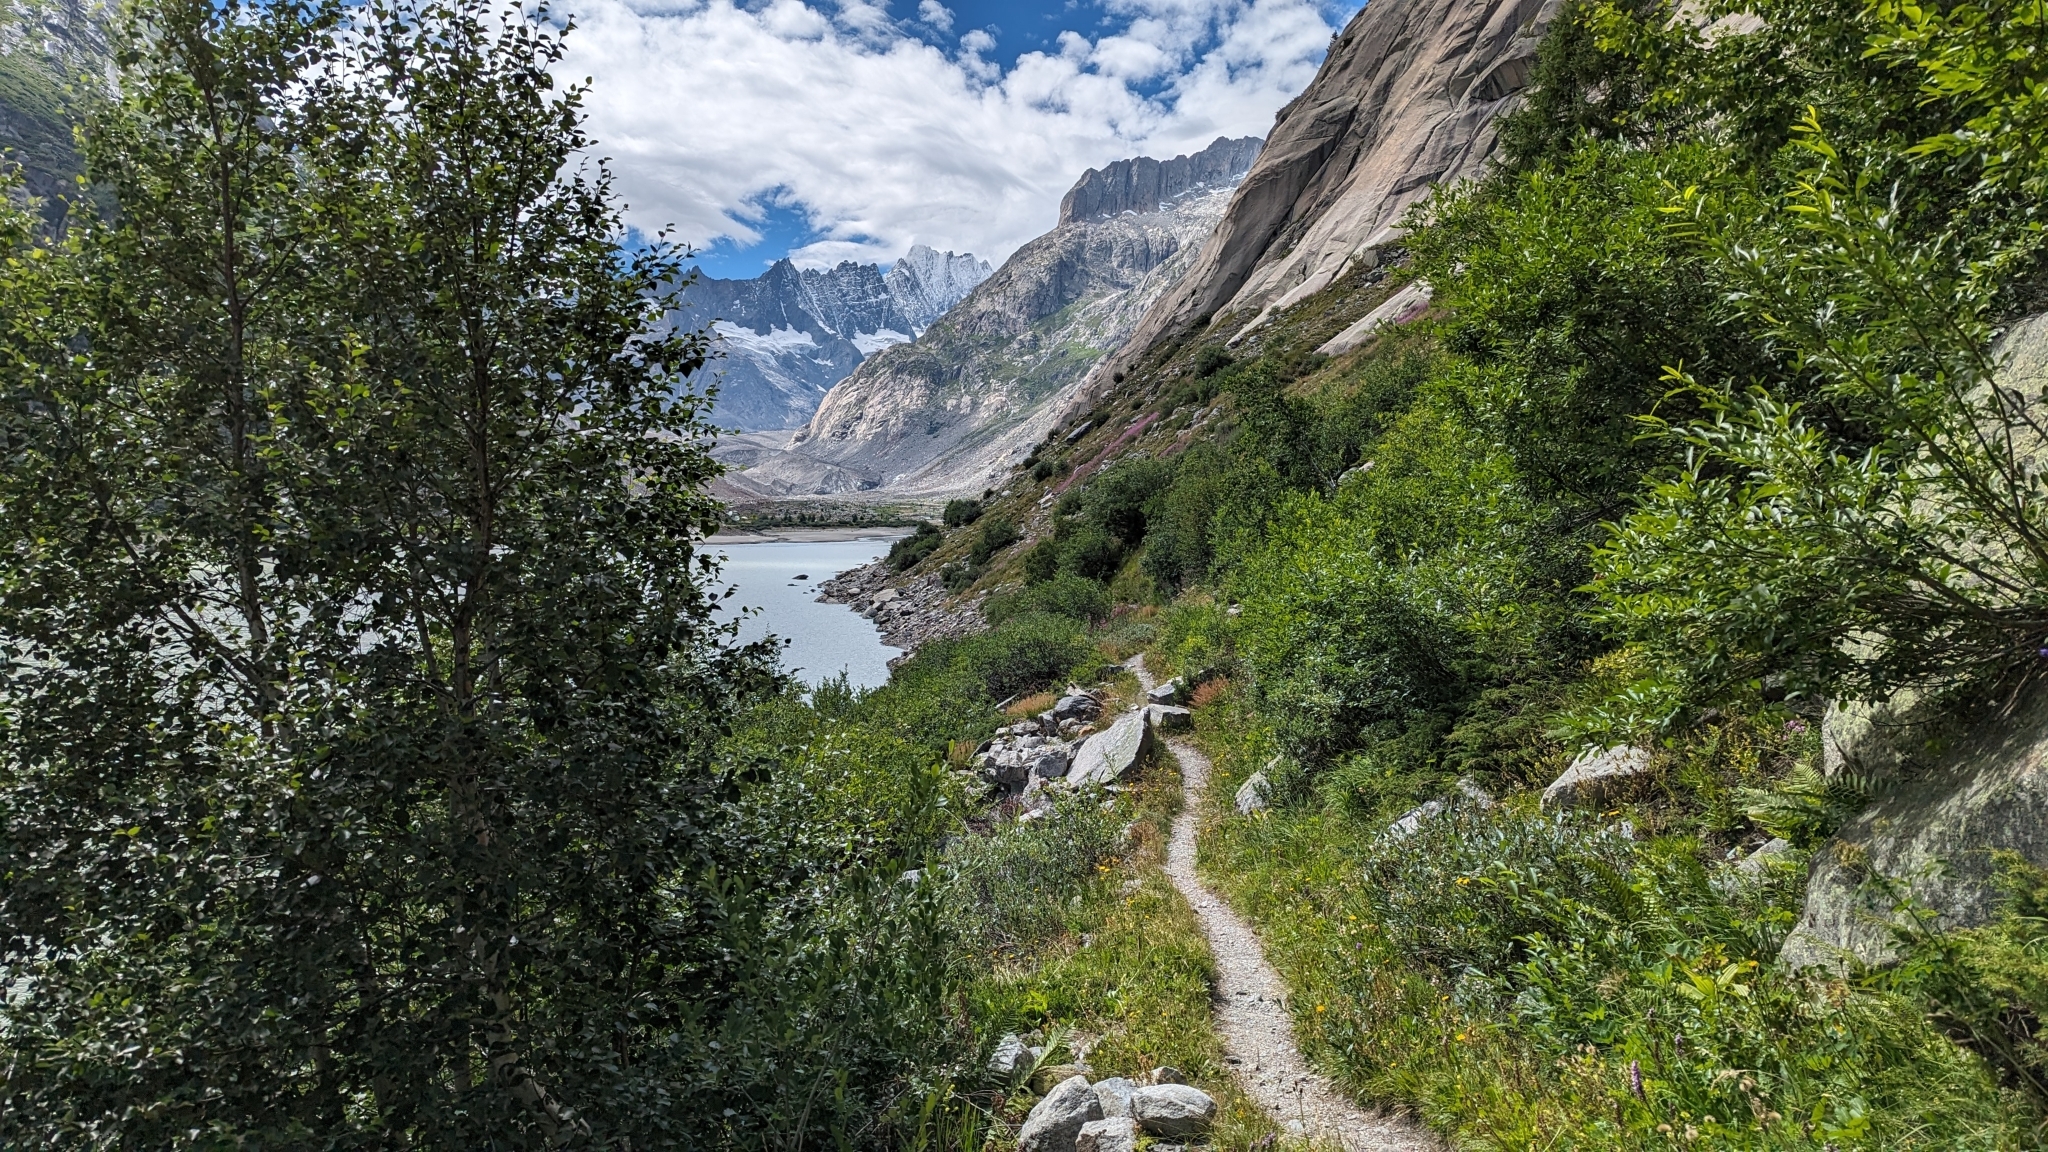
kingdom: Animalia
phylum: Arthropoda
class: Insecta
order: Hymenoptera
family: Formicidae
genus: Formica
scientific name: Formica
